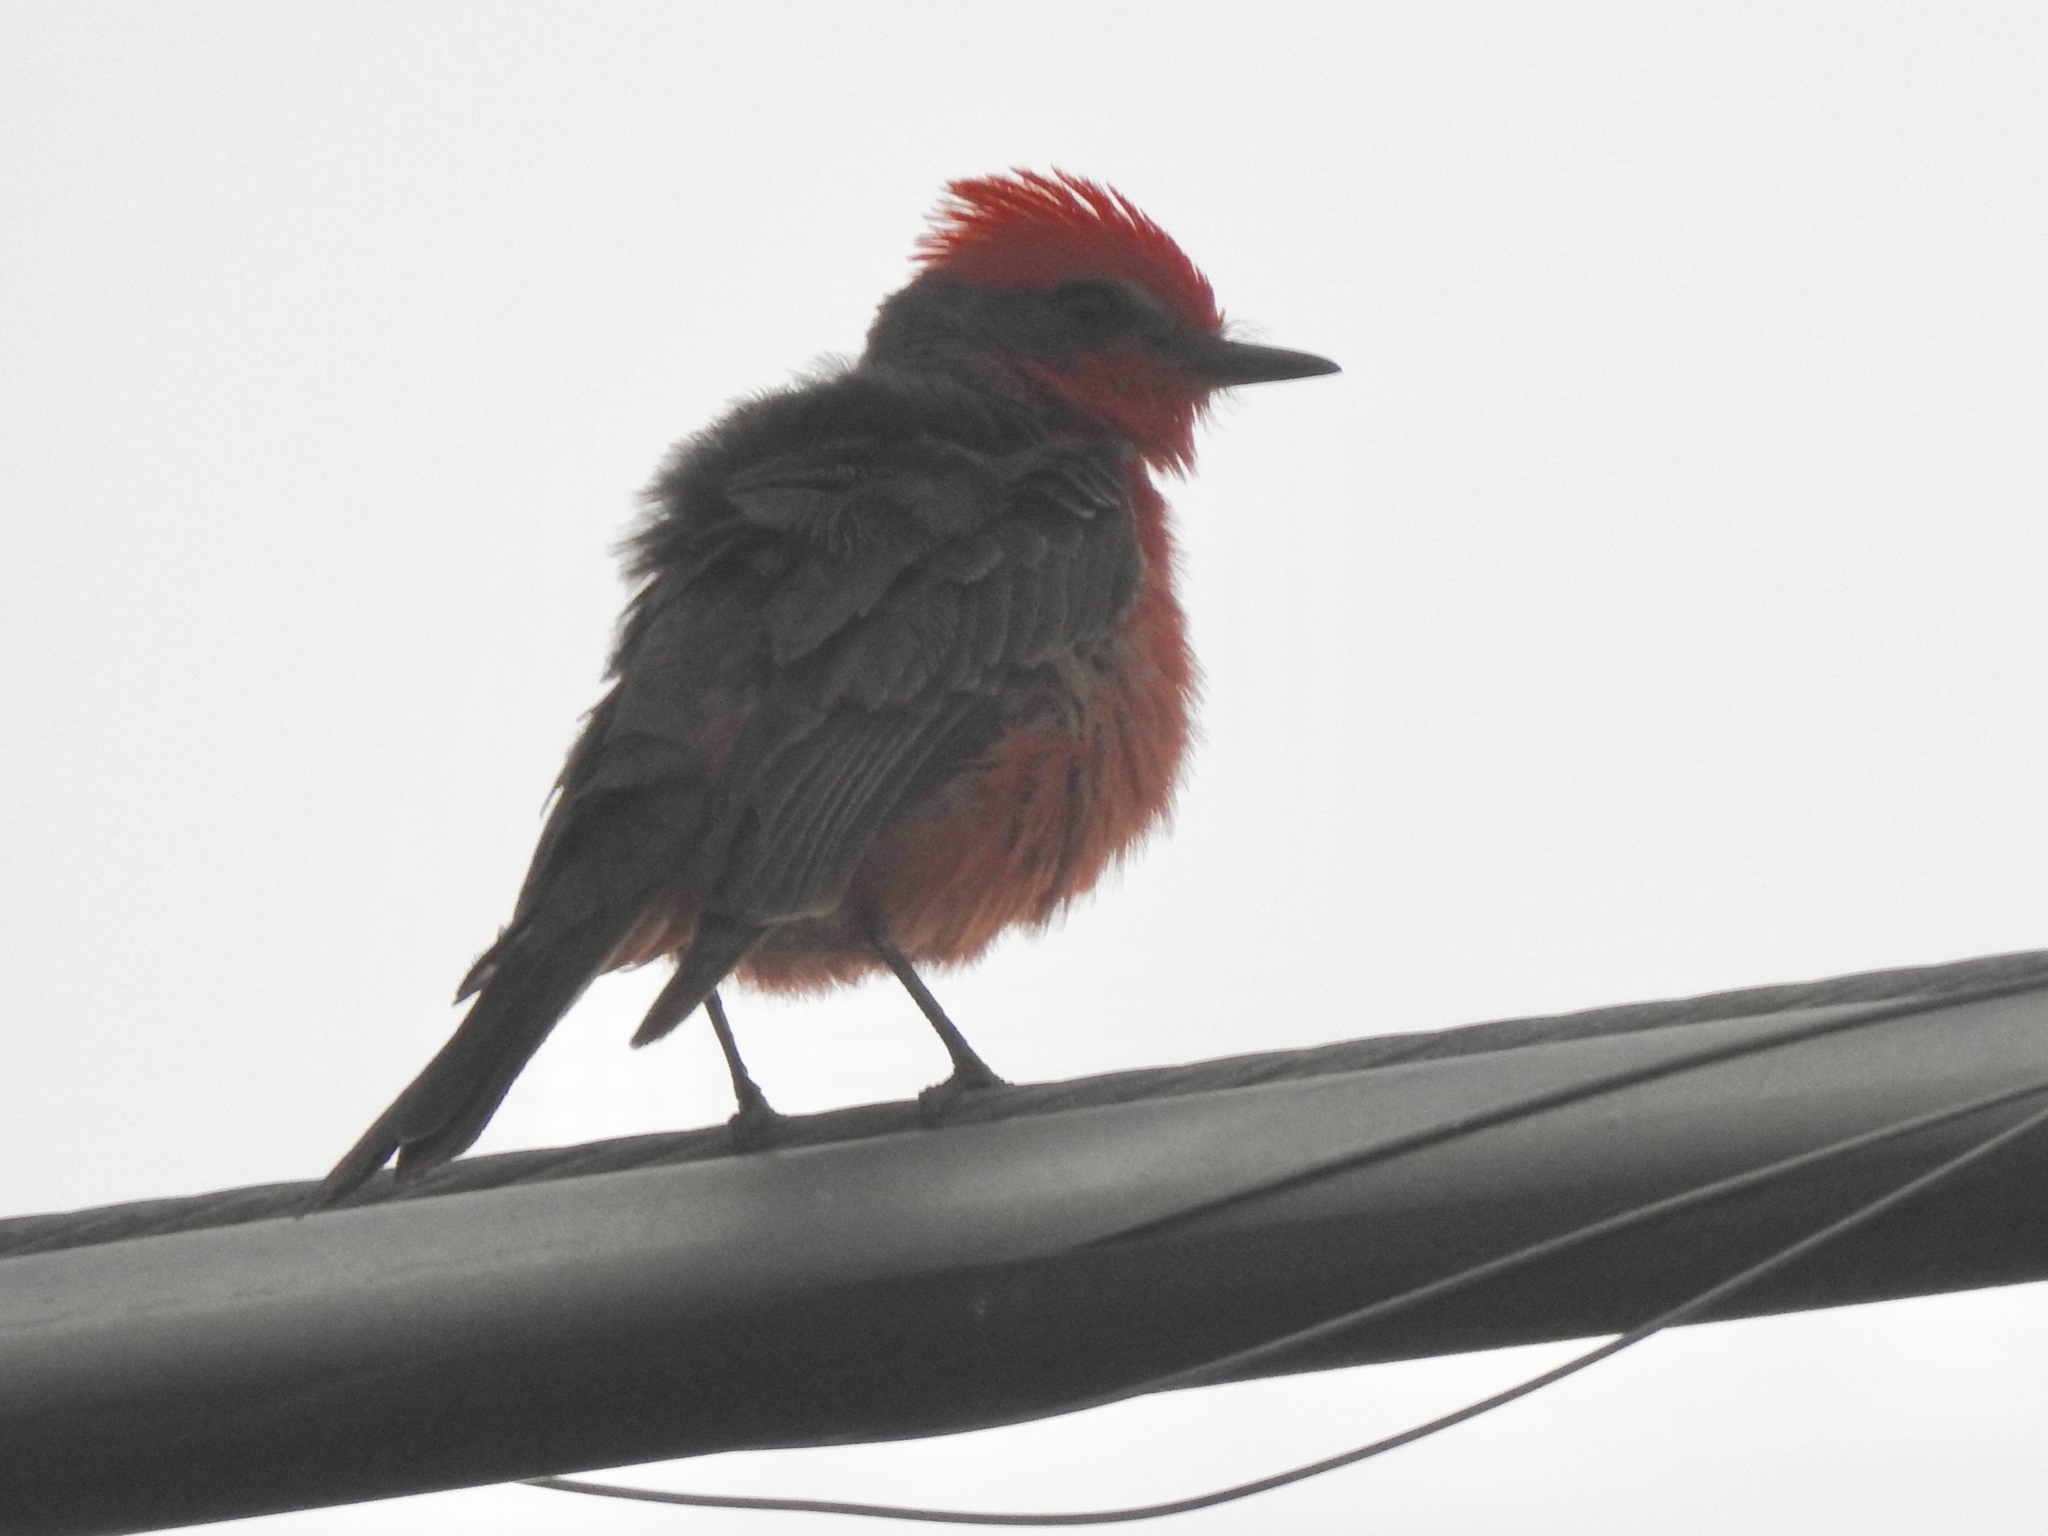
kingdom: Animalia
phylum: Chordata
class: Aves
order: Passeriformes
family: Tyrannidae
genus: Pyrocephalus
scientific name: Pyrocephalus rubinus
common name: Vermilion flycatcher
